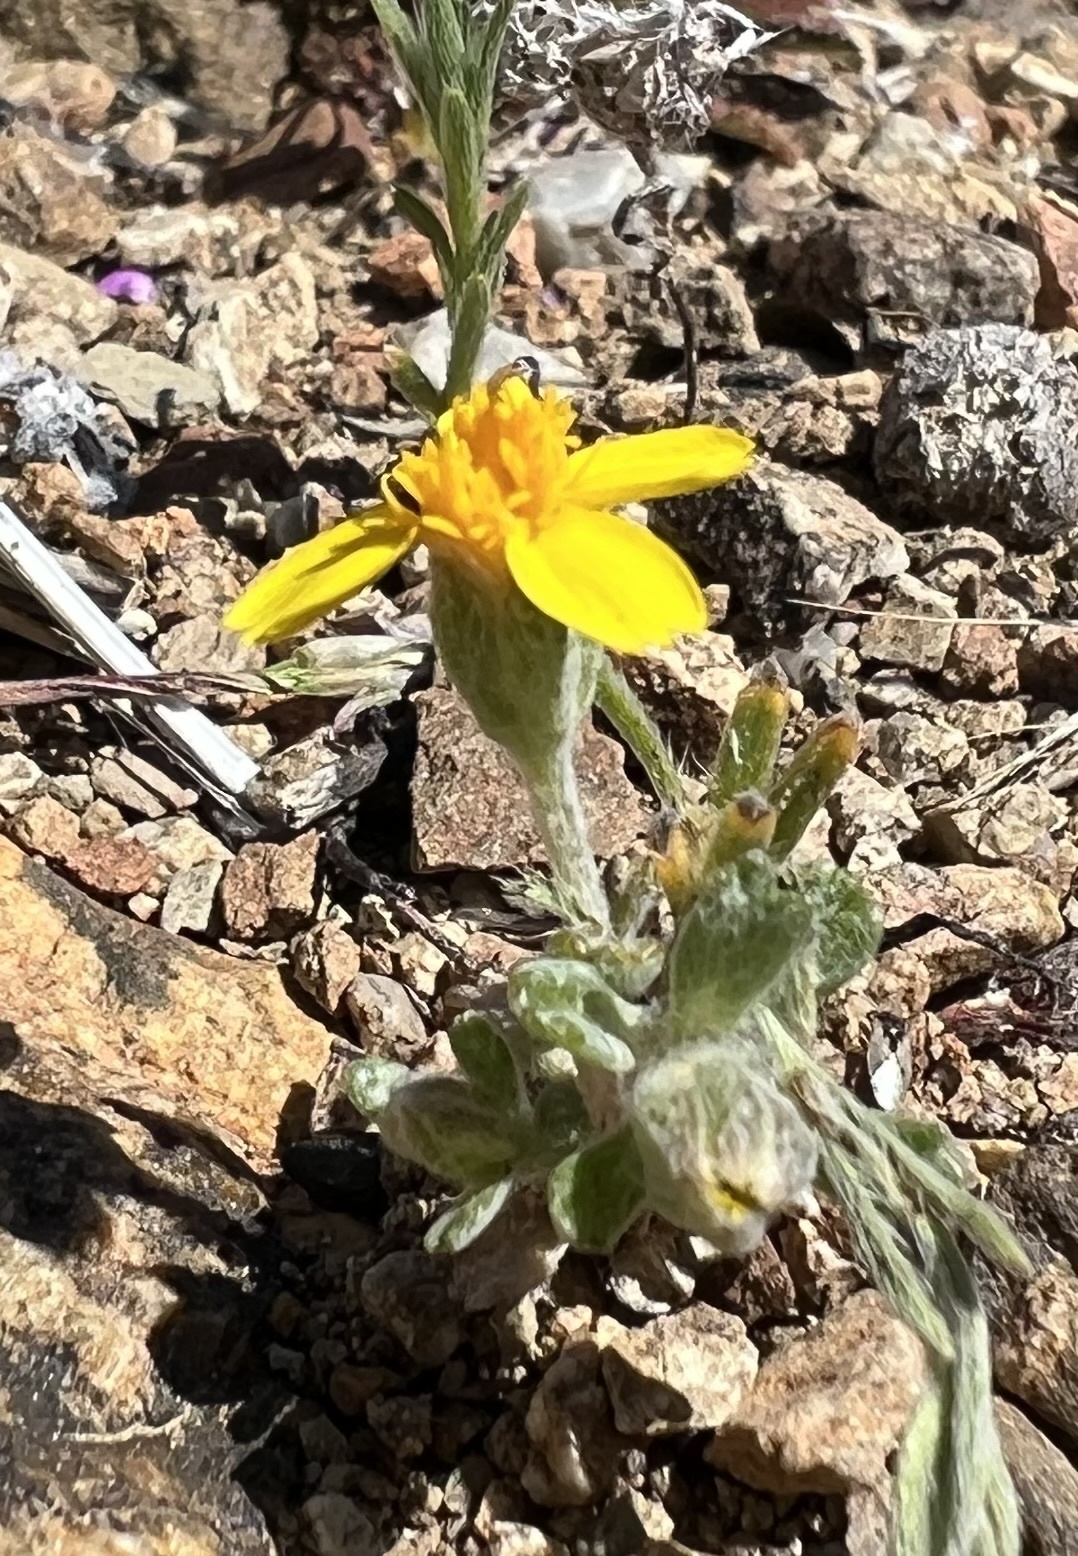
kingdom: Plantae
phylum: Tracheophyta
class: Magnoliopsida
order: Asterales
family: Asteraceae
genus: Syntrichopappus
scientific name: Syntrichopappus fremontii
